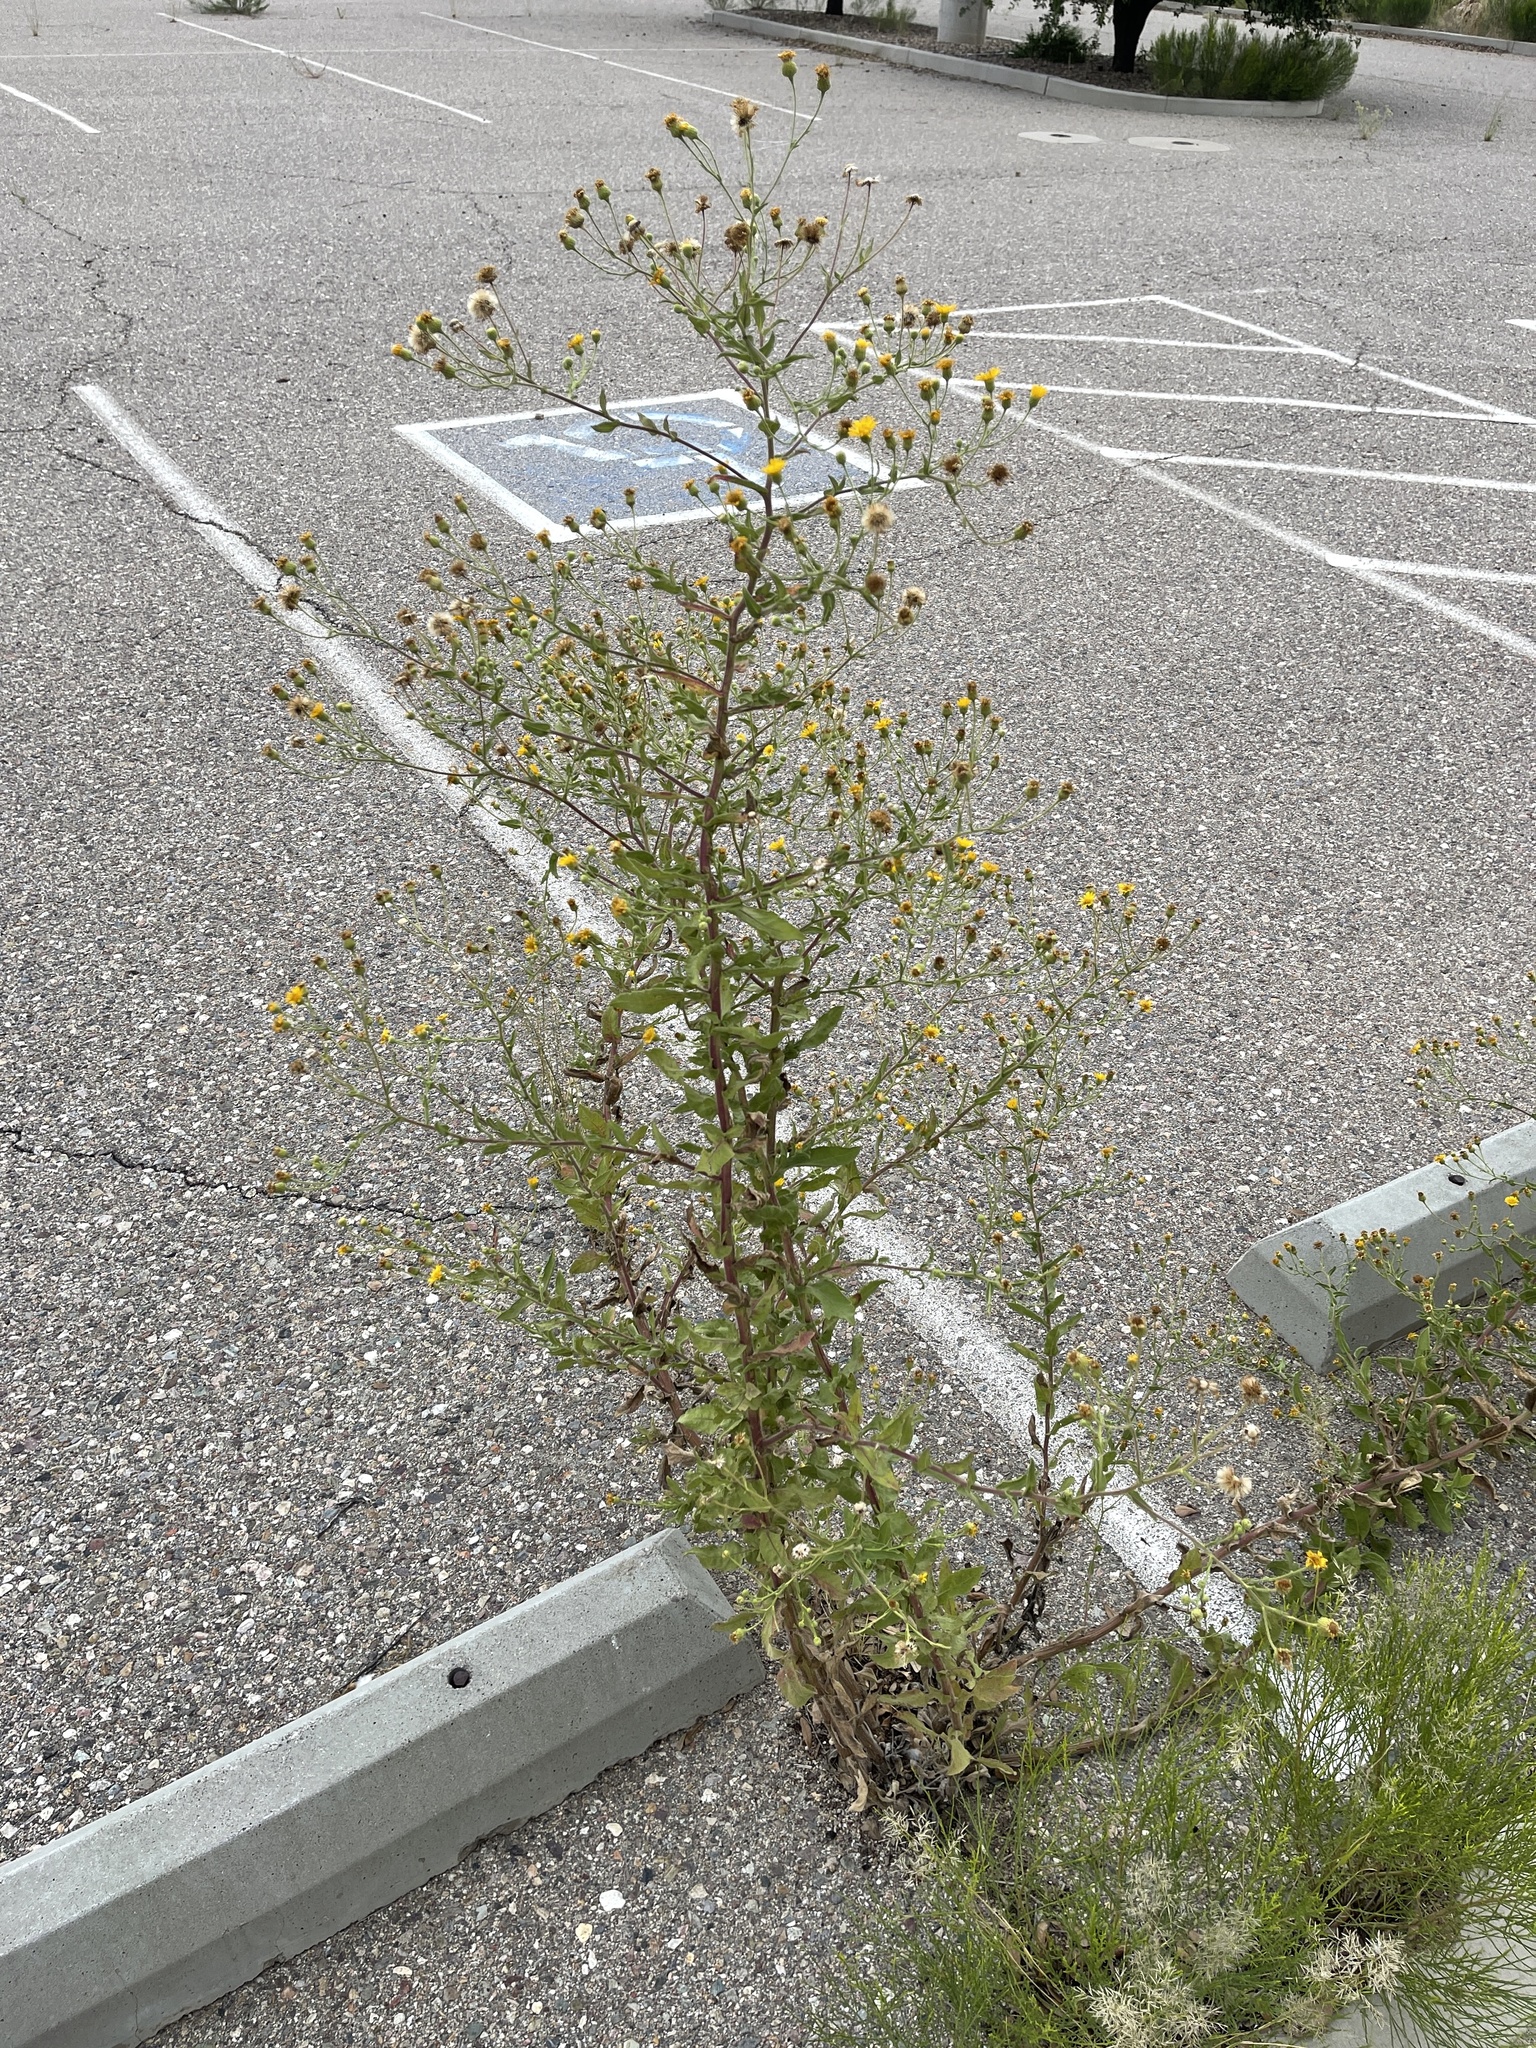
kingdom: Plantae
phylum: Tracheophyta
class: Magnoliopsida
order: Asterales
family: Asteraceae
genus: Heterotheca
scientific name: Heterotheca subaxillaris
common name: Camphorweed
